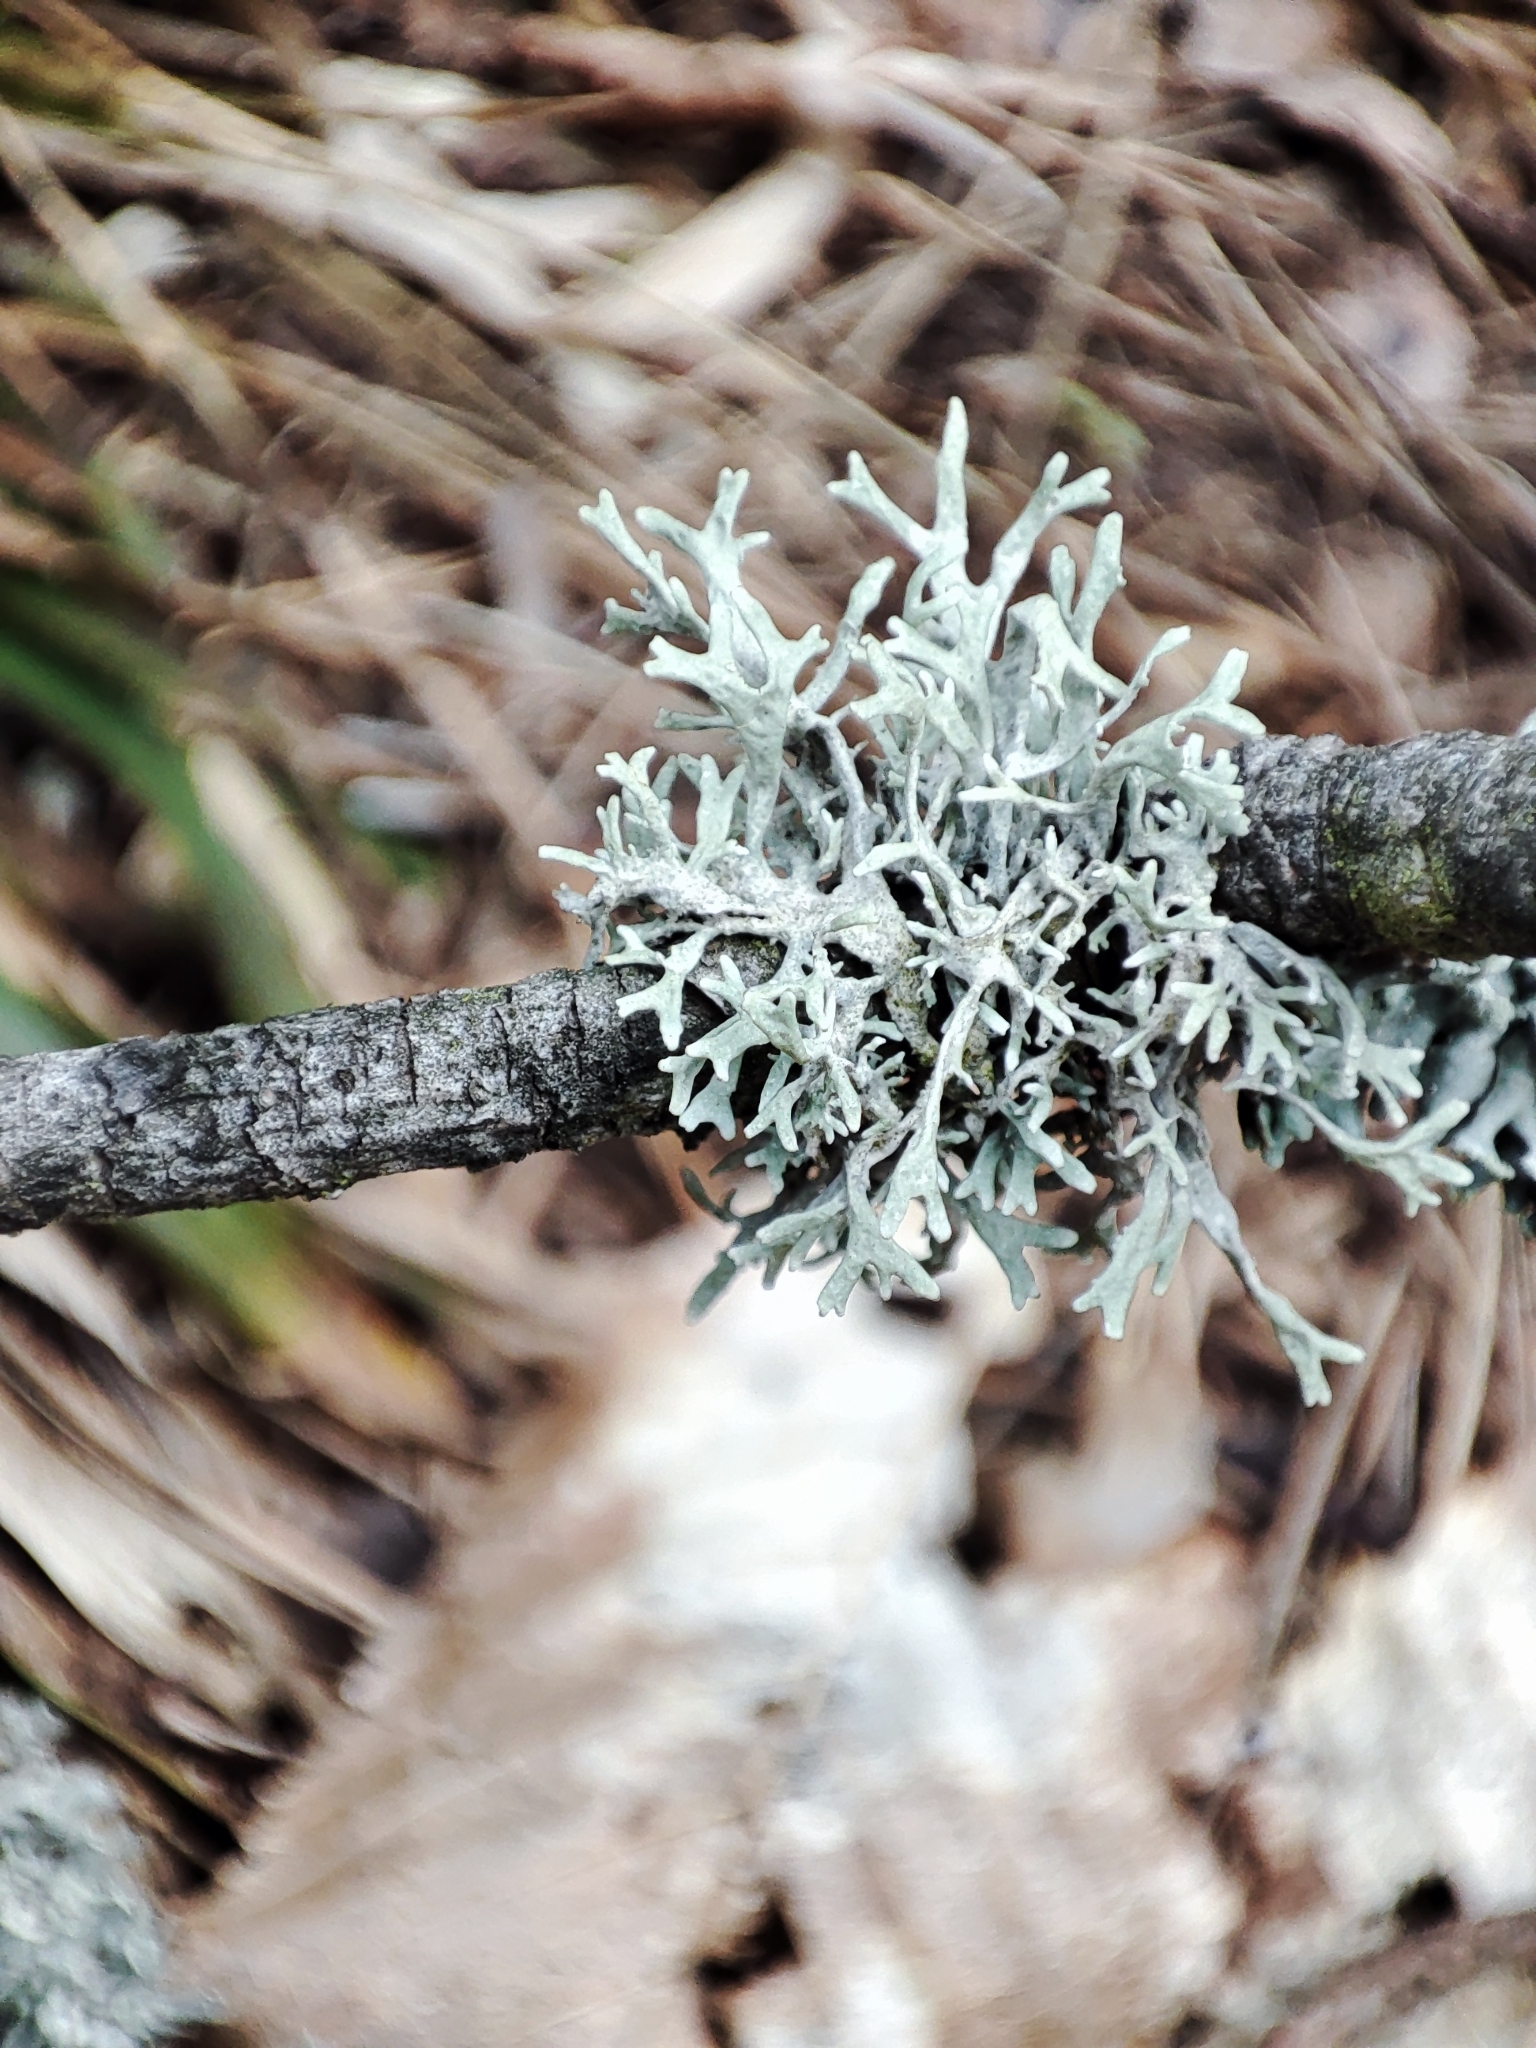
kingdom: Fungi
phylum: Ascomycota
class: Lecanoromycetes
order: Lecanorales
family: Parmeliaceae
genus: Evernia
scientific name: Evernia prunastri
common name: Oak moss
